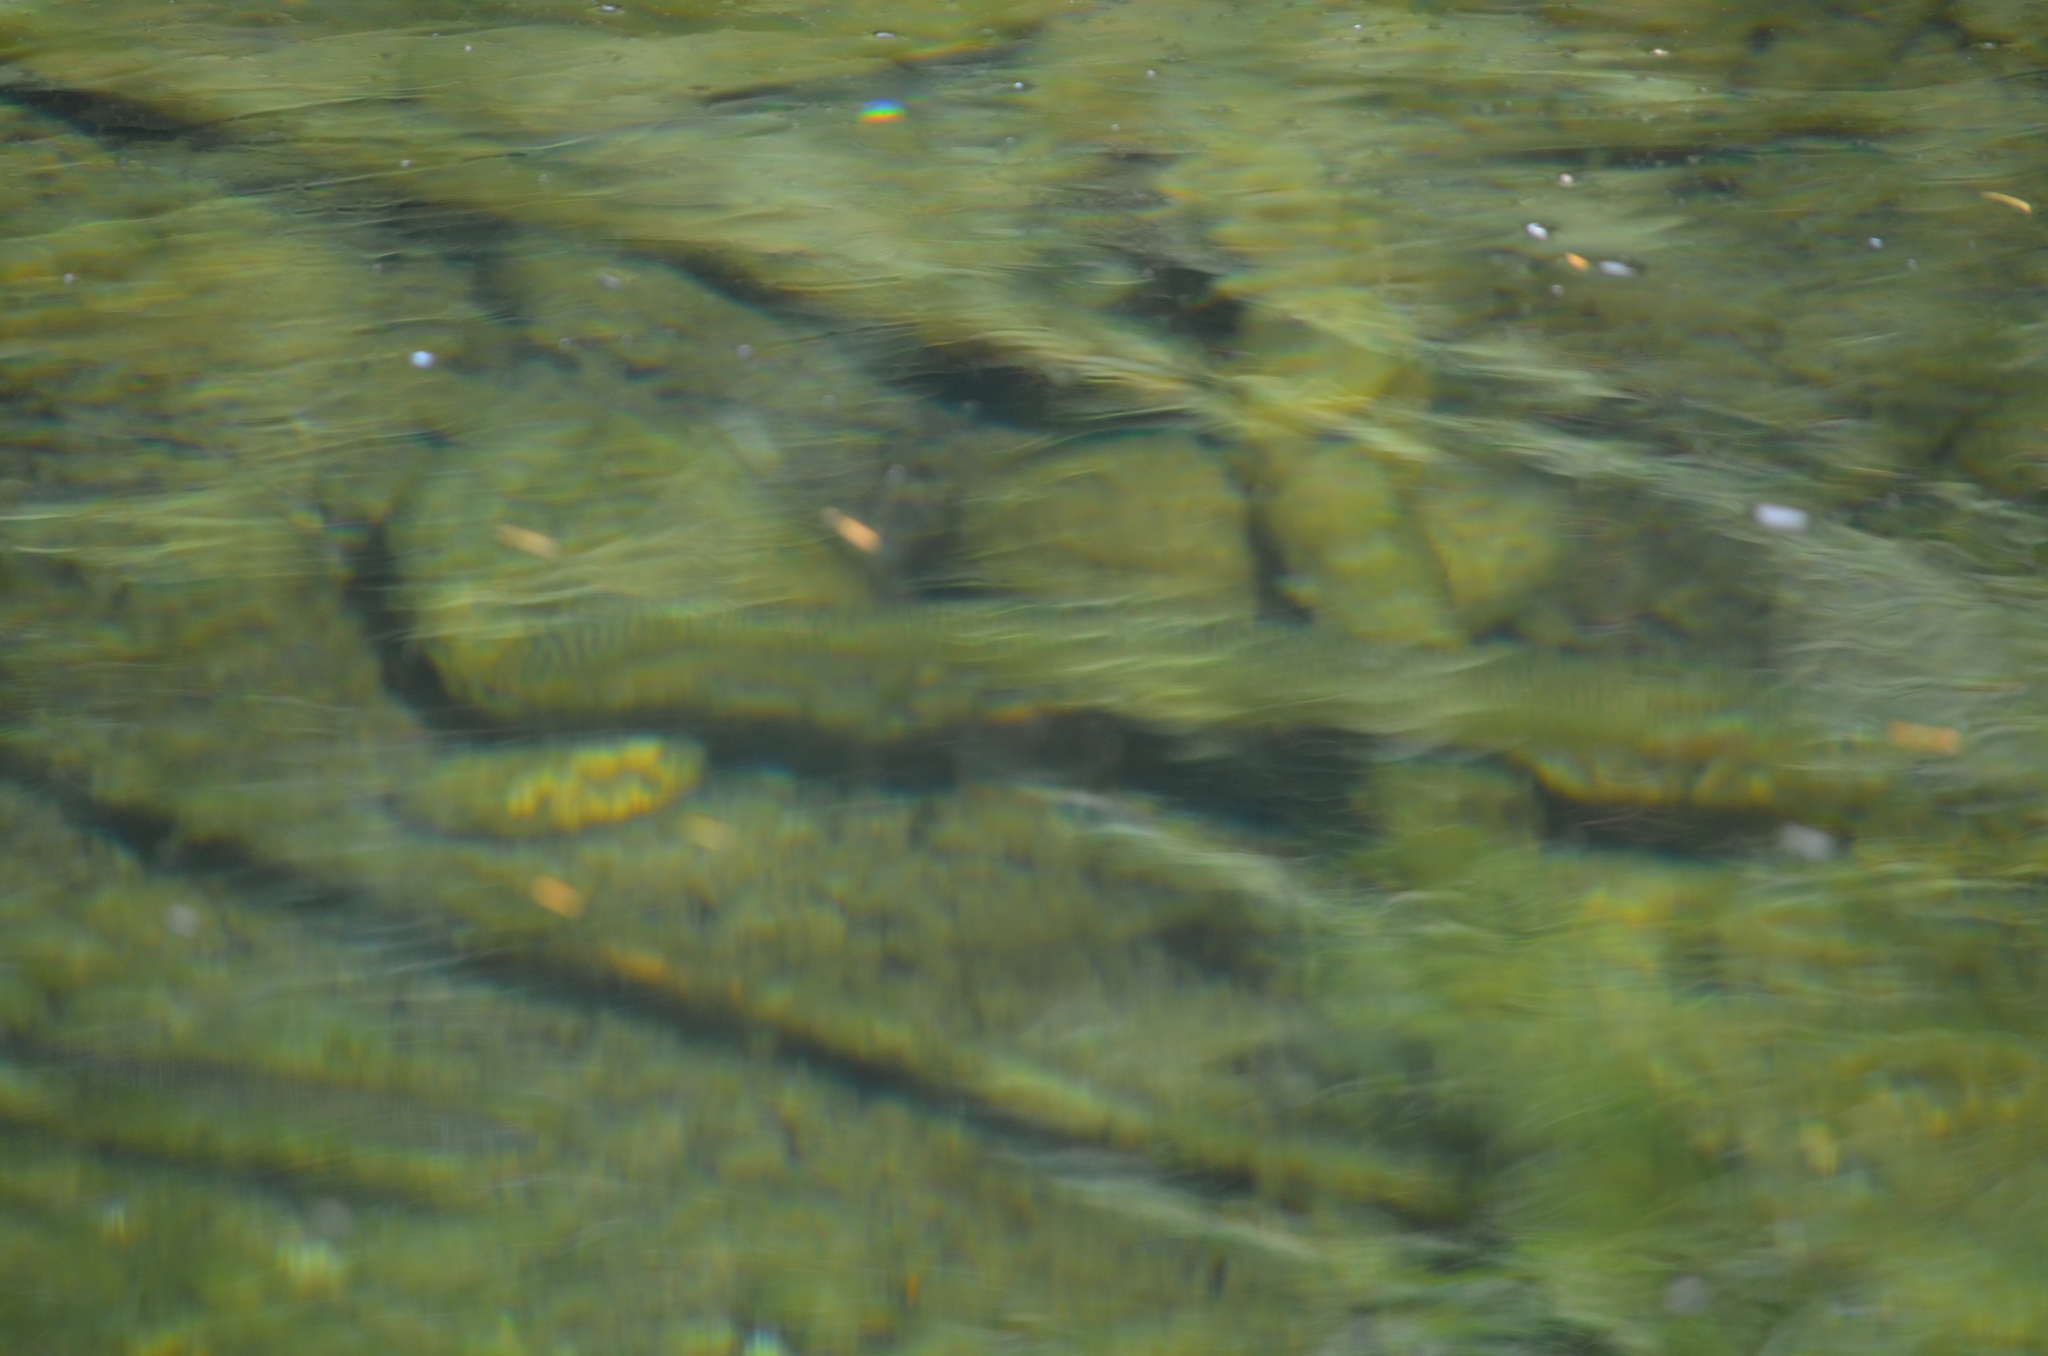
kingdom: Animalia
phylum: Chordata
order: Salmoniformes
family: Salmonidae
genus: Oncorhynchus
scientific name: Oncorhynchus clarkii
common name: Cutthroat trout
